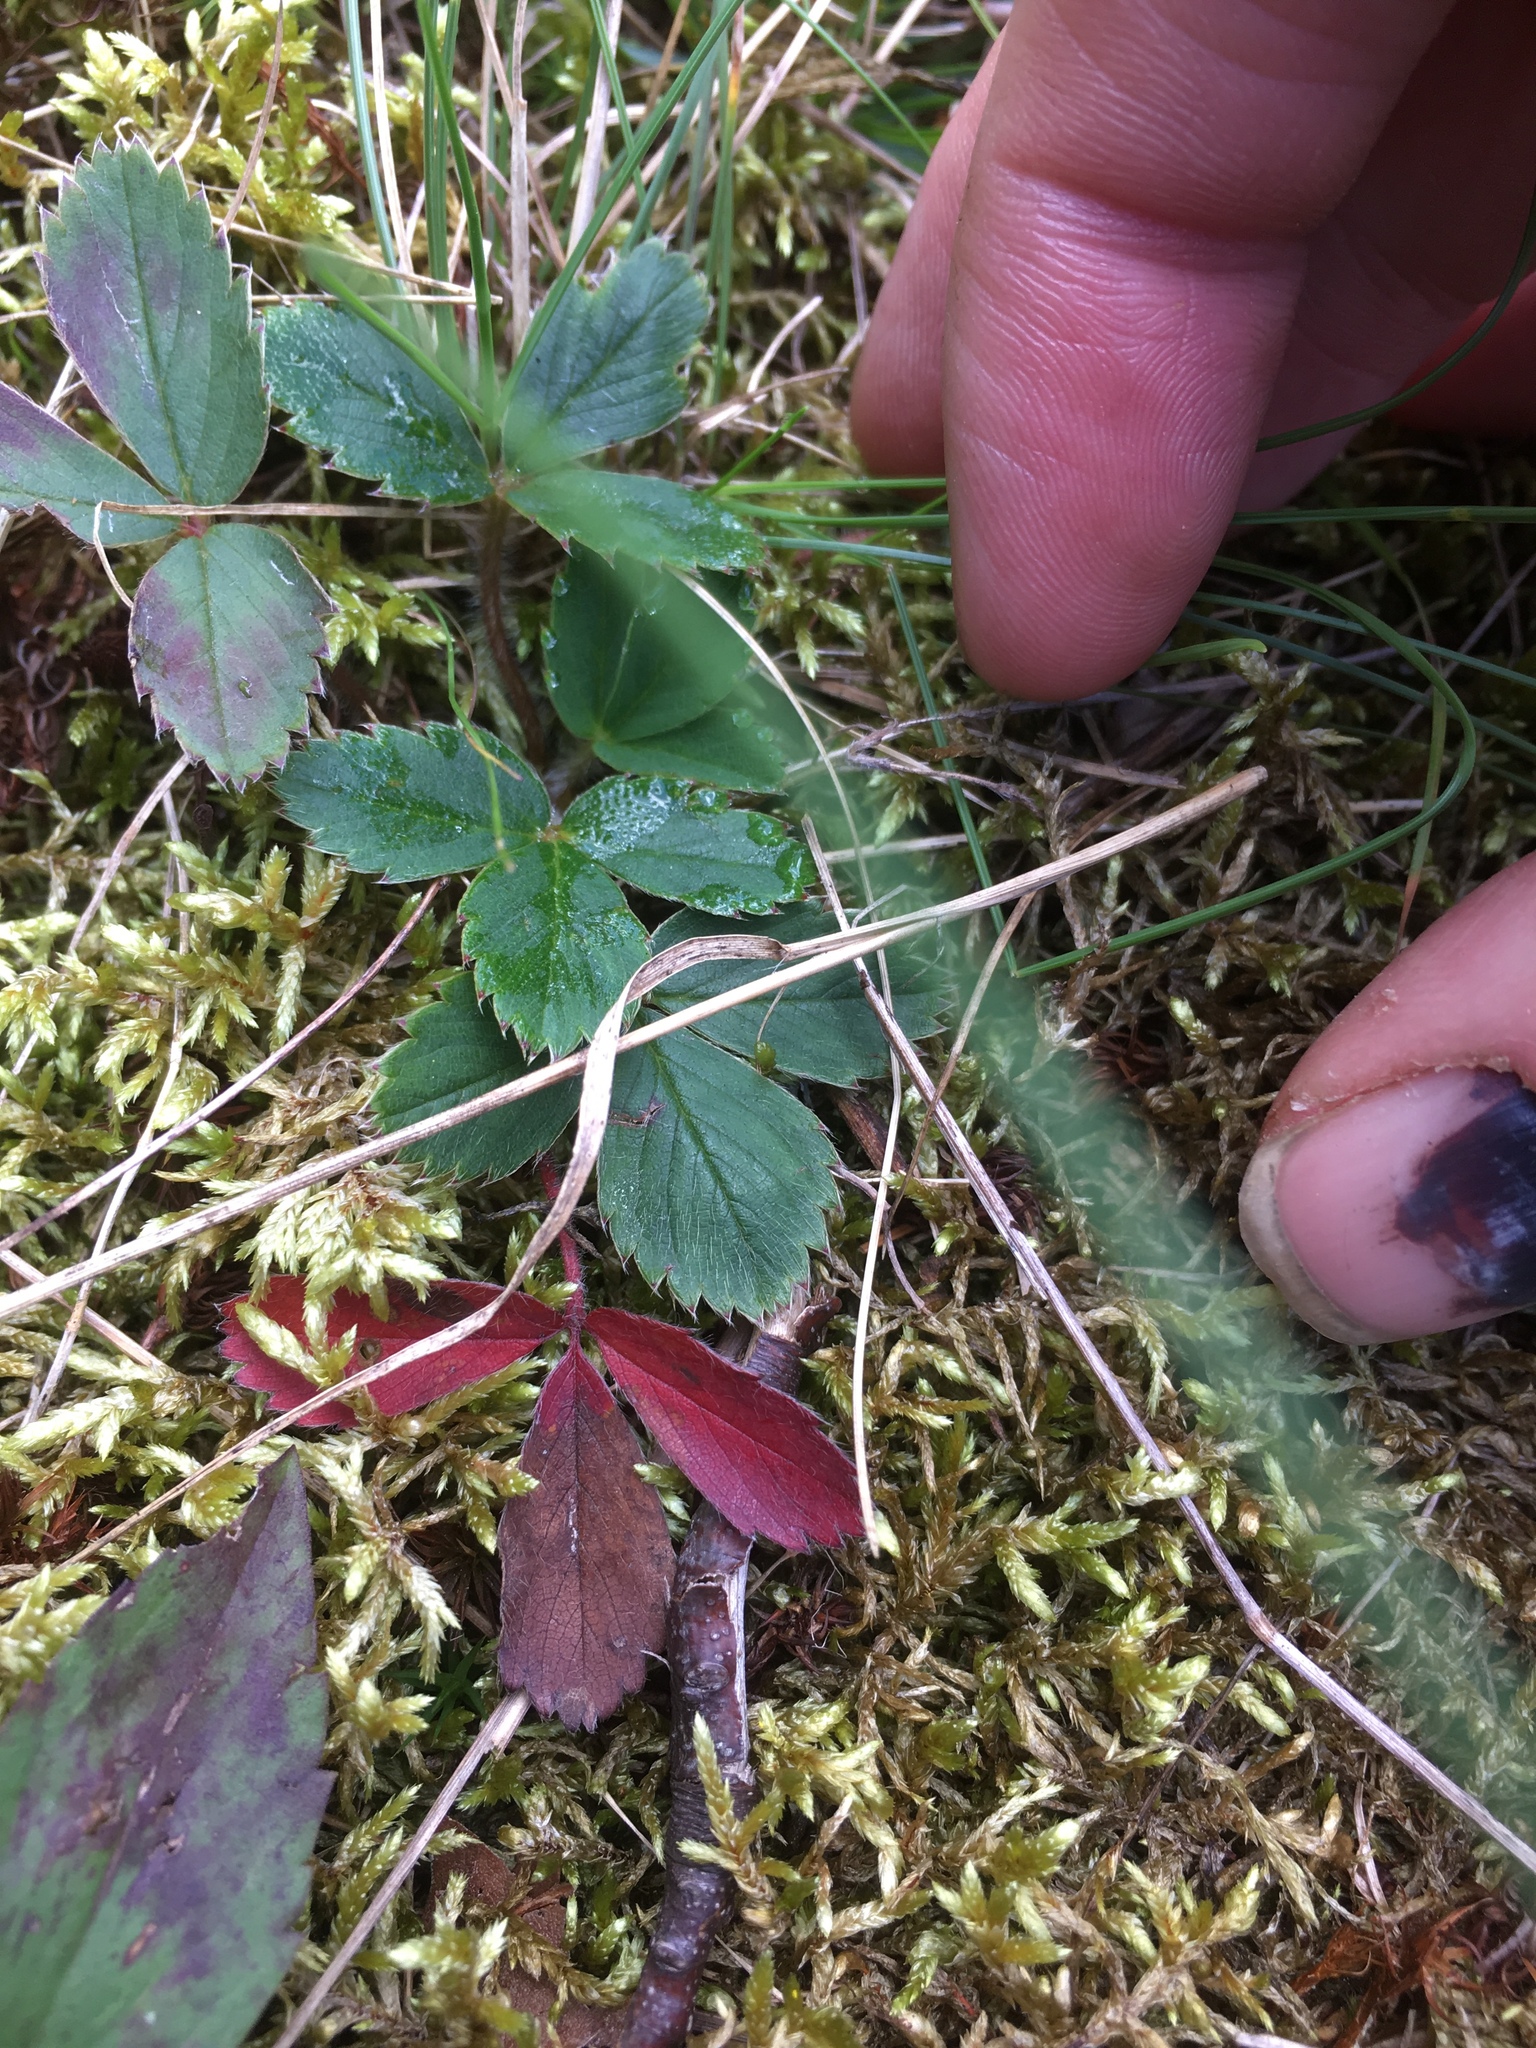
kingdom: Plantae
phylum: Tracheophyta
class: Magnoliopsida
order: Rosales
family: Rosaceae
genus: Fragaria
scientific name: Fragaria virginiana
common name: Thickleaved wild strawberry
